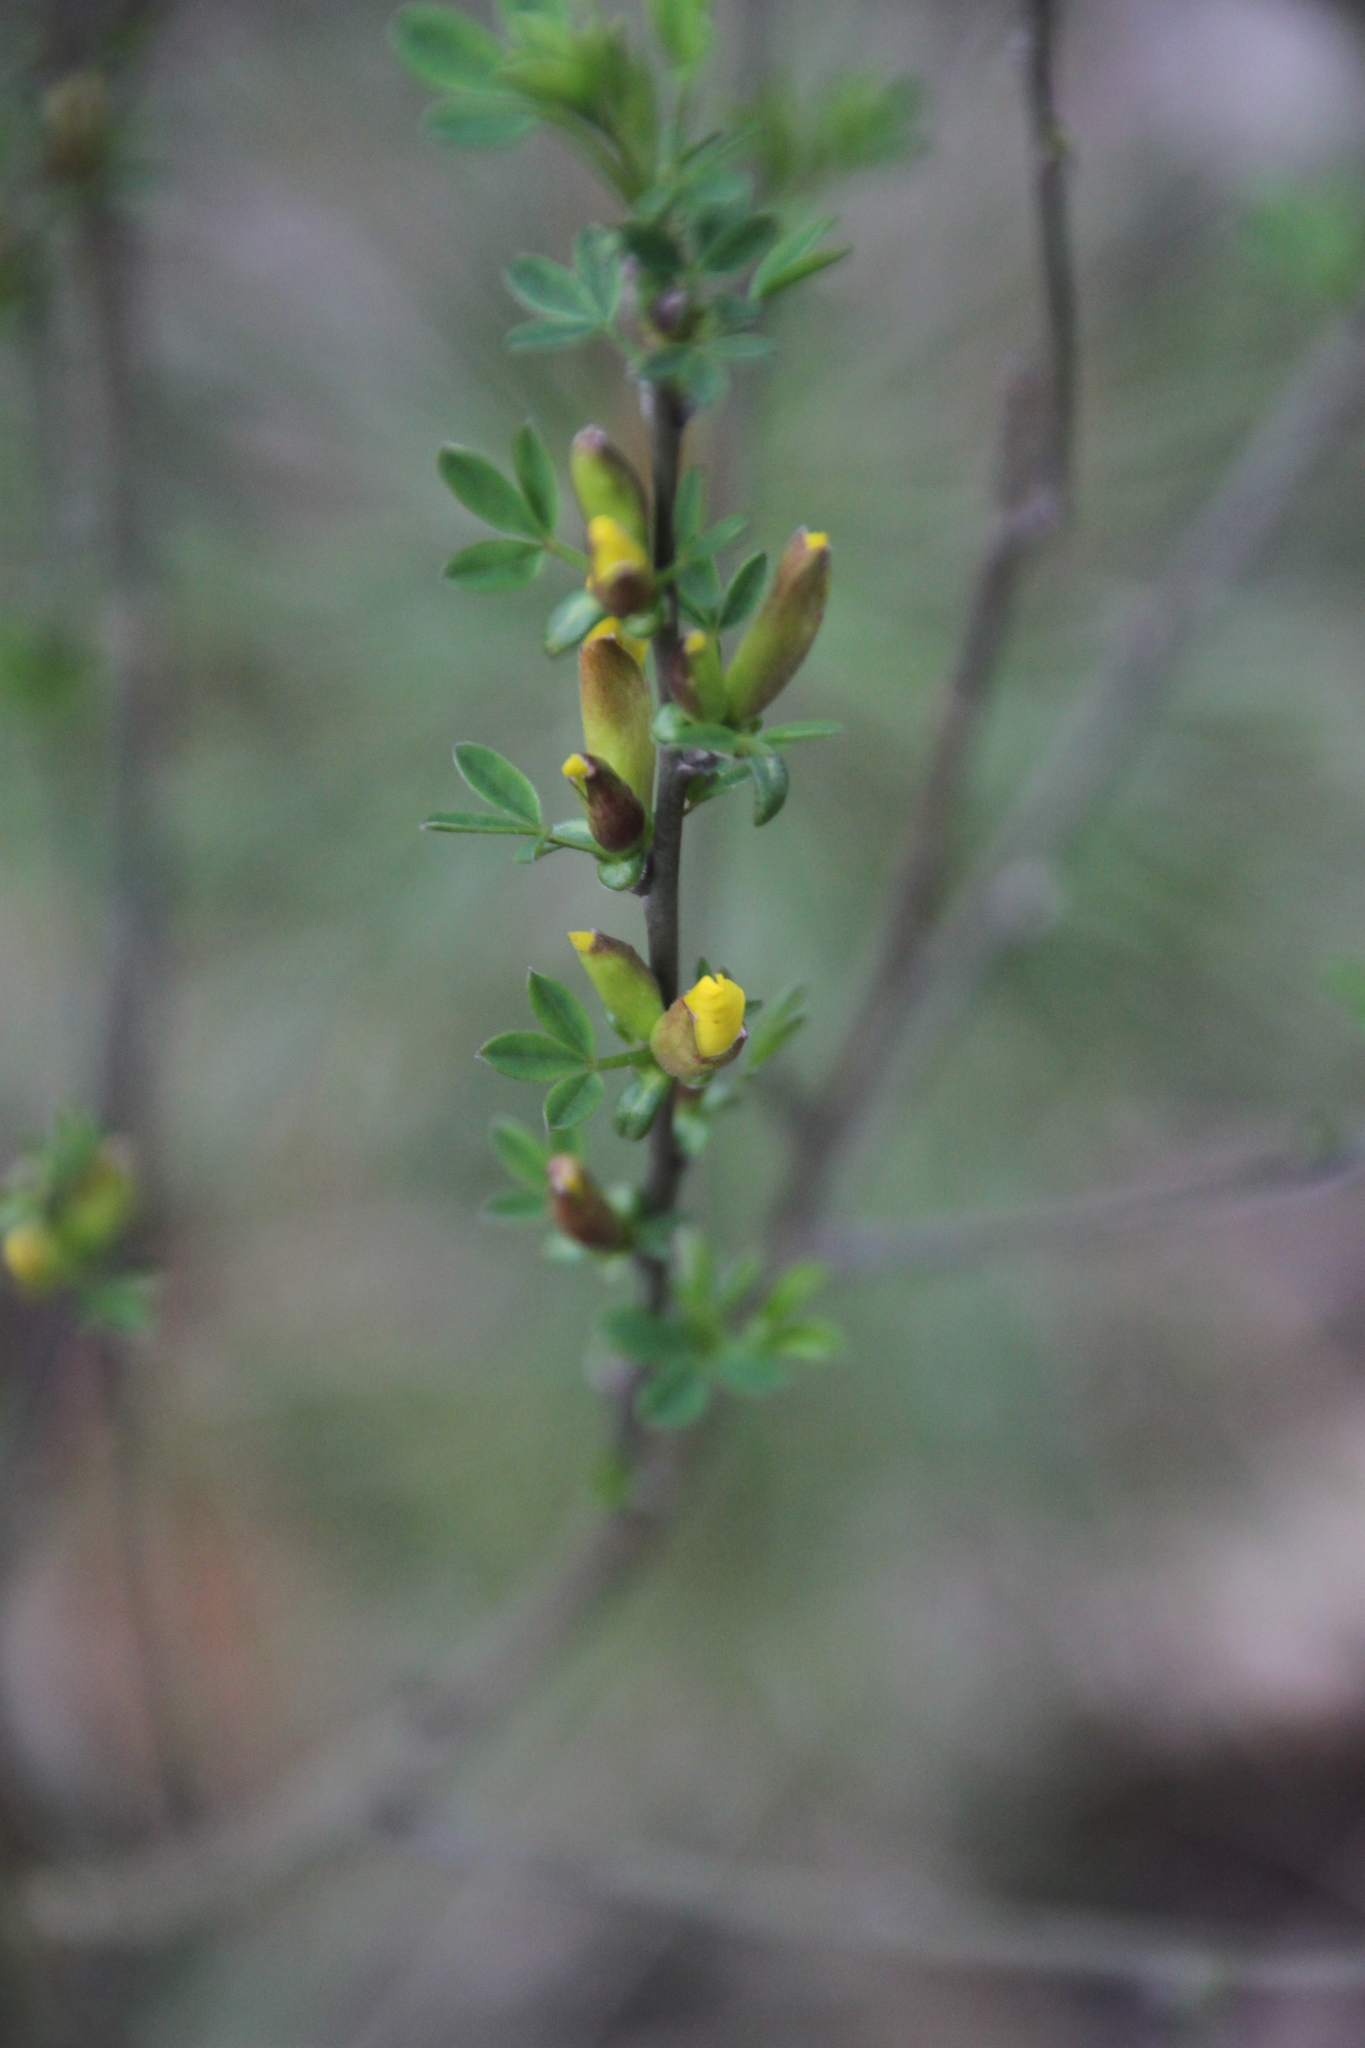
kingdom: Plantae
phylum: Tracheophyta
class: Magnoliopsida
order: Fabales
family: Fabaceae
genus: Chamaecytisus
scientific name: Chamaecytisus ruthenicus
